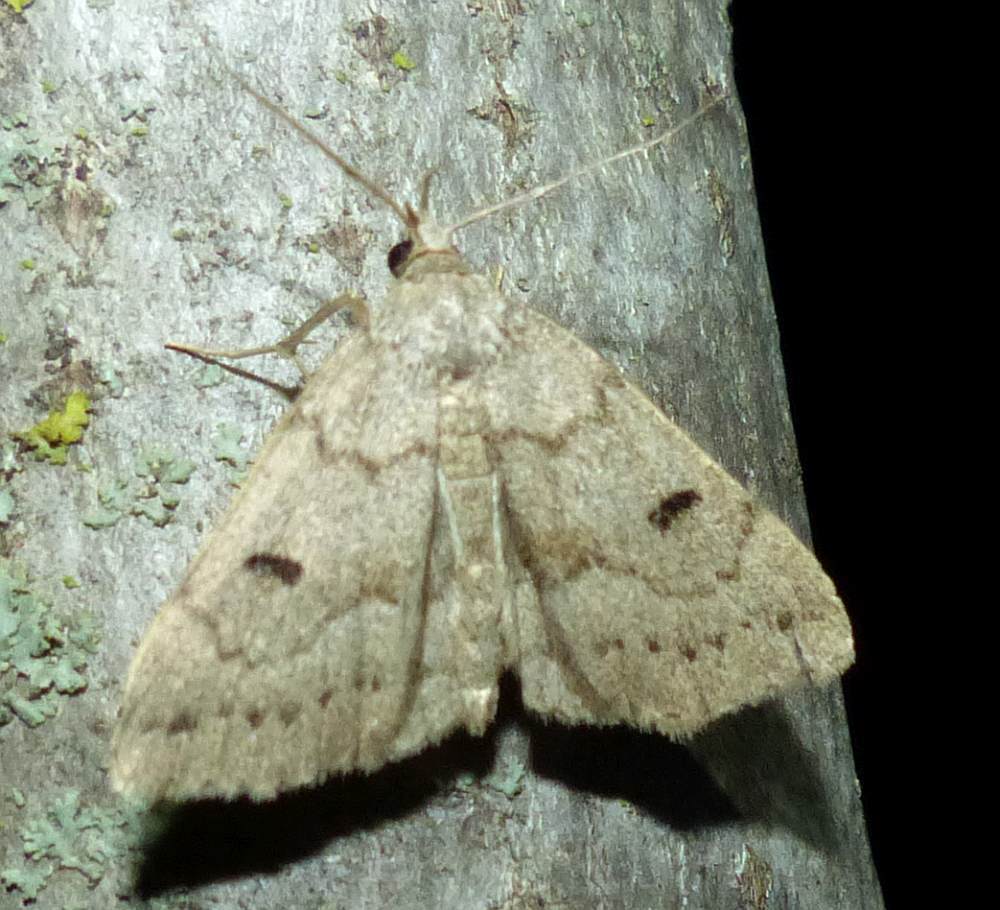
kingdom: Animalia
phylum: Arthropoda
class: Insecta
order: Lepidoptera
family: Erebidae
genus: Macrochilo
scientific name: Macrochilo morbidalis
